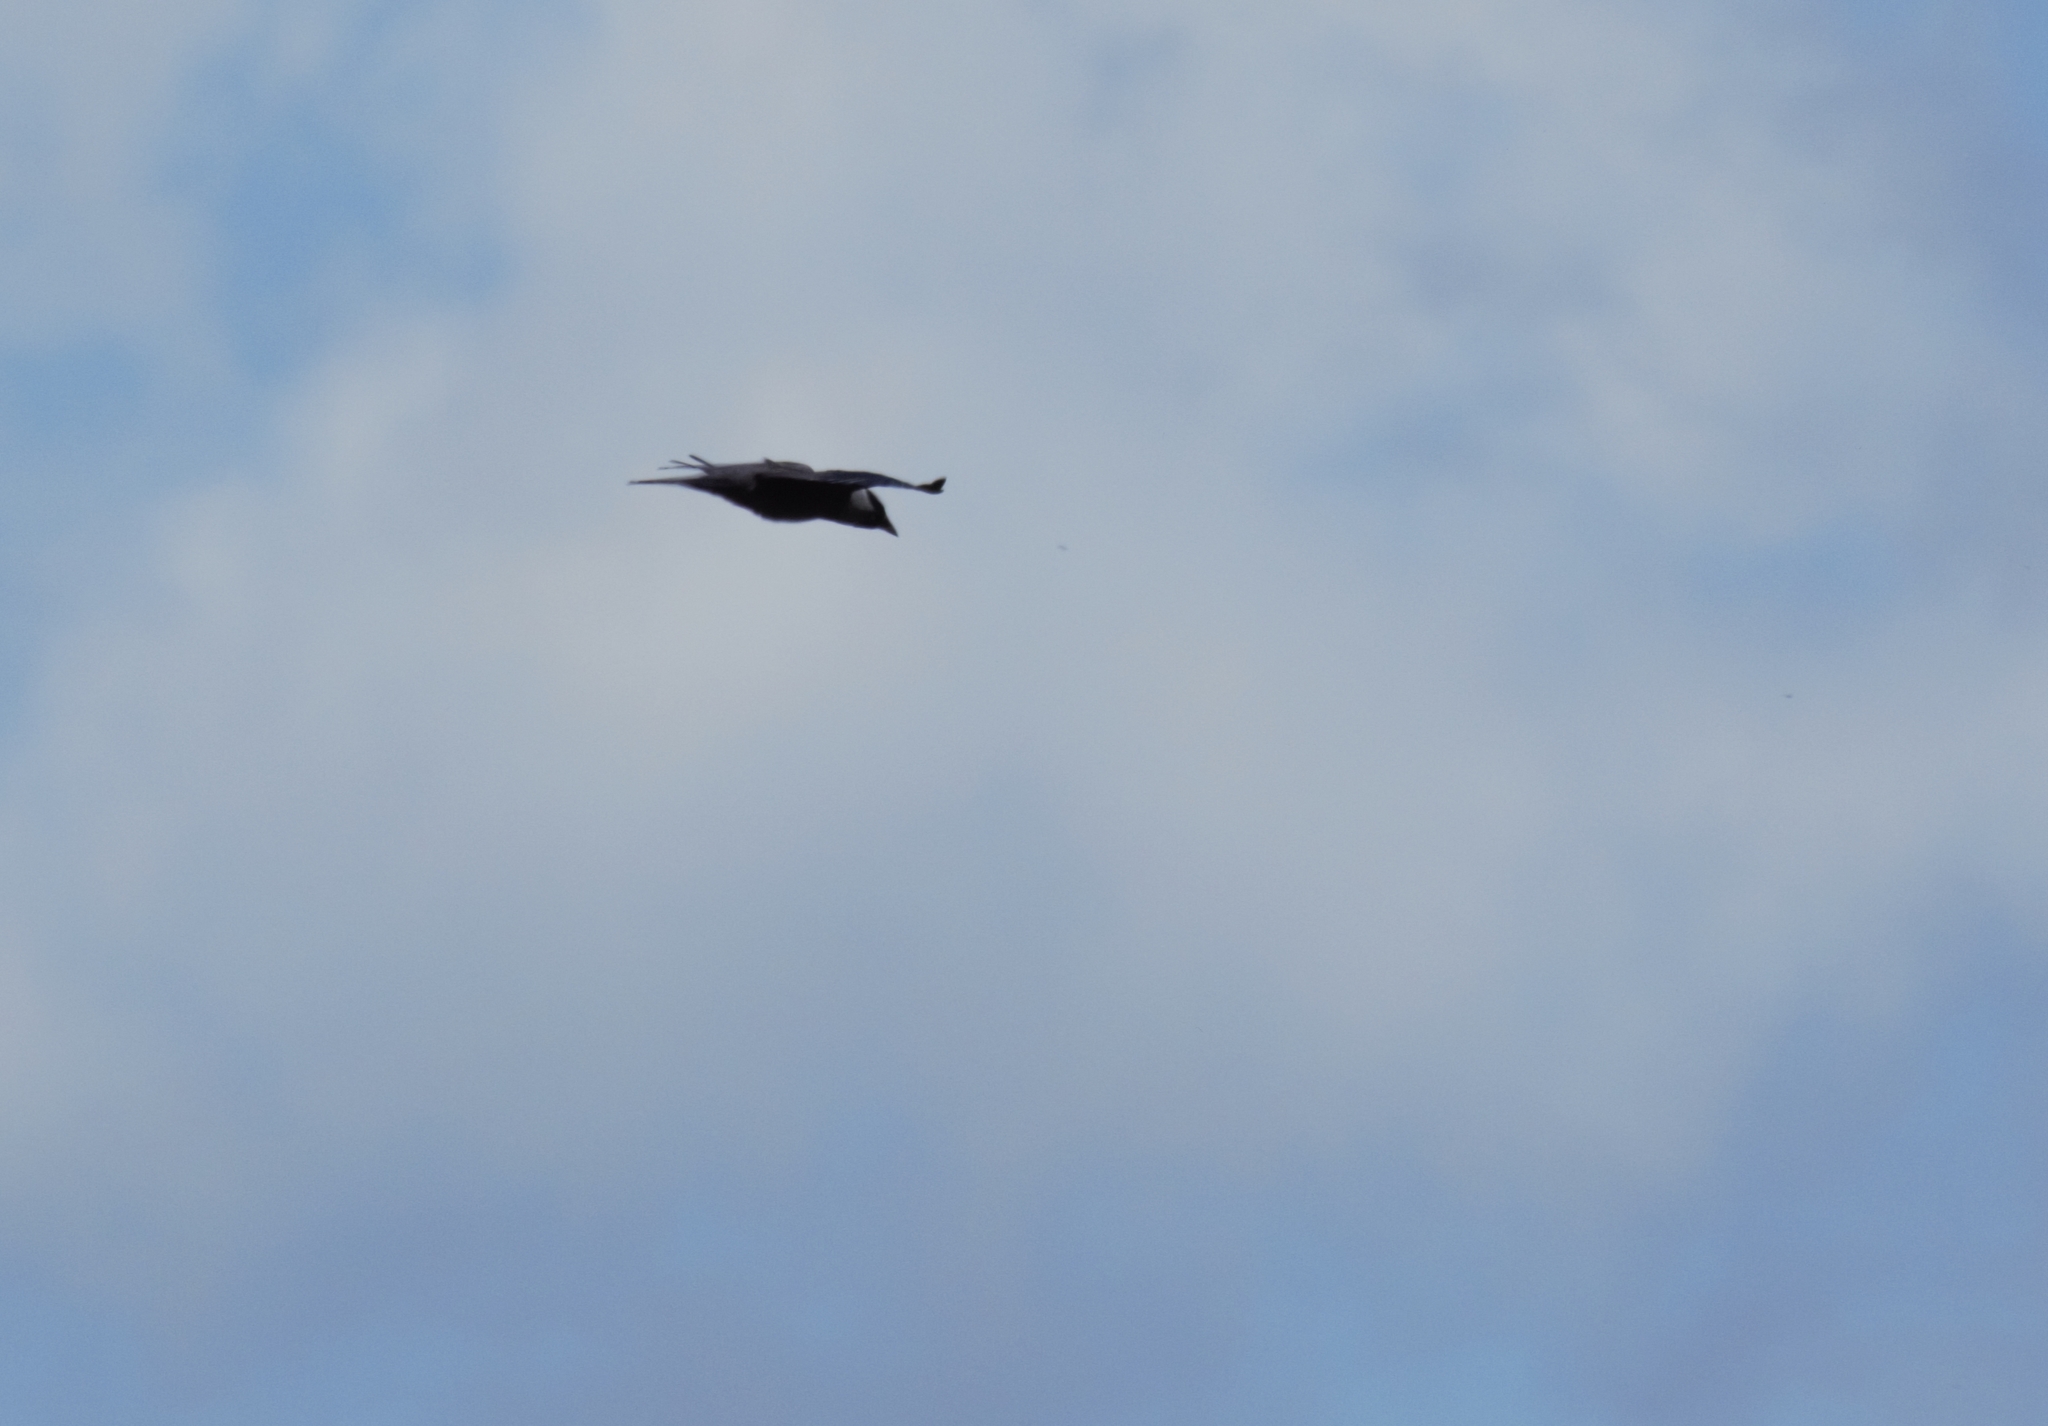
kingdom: Animalia
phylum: Chordata
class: Aves
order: Passeriformes
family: Corvidae
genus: Coloeus
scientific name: Coloeus monedula
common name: Western jackdaw
